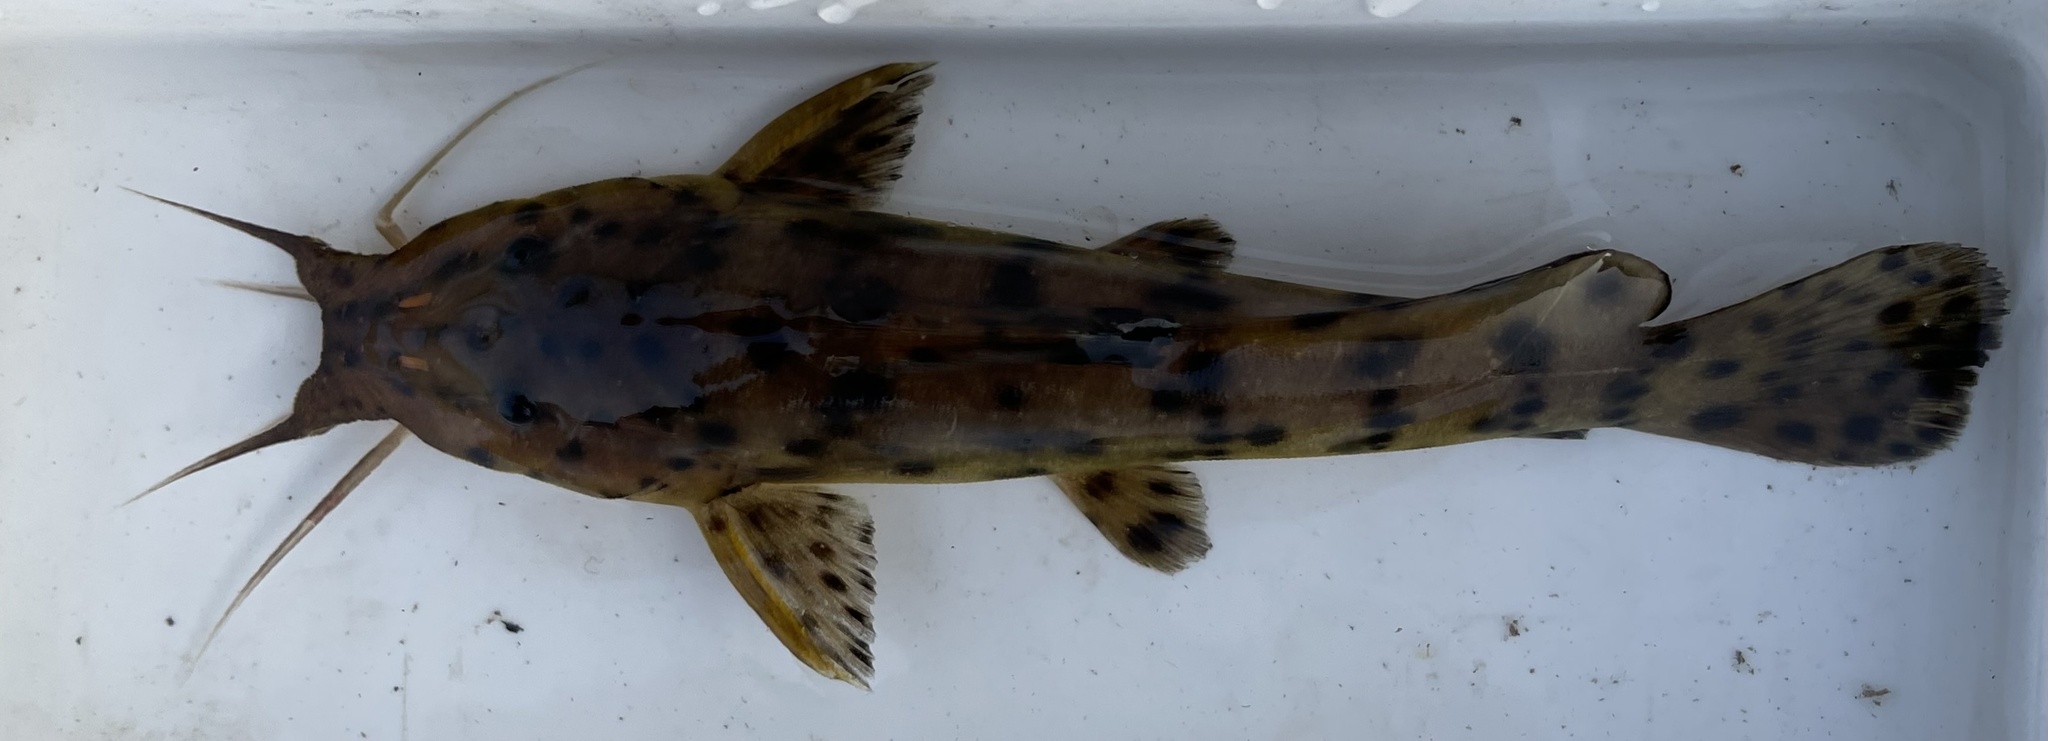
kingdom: Animalia
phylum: Chordata
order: Siluriformes
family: Claroteidae
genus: Parauchenoglanis
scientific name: Parauchenoglanis ngamensis
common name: Zambezi grunter
